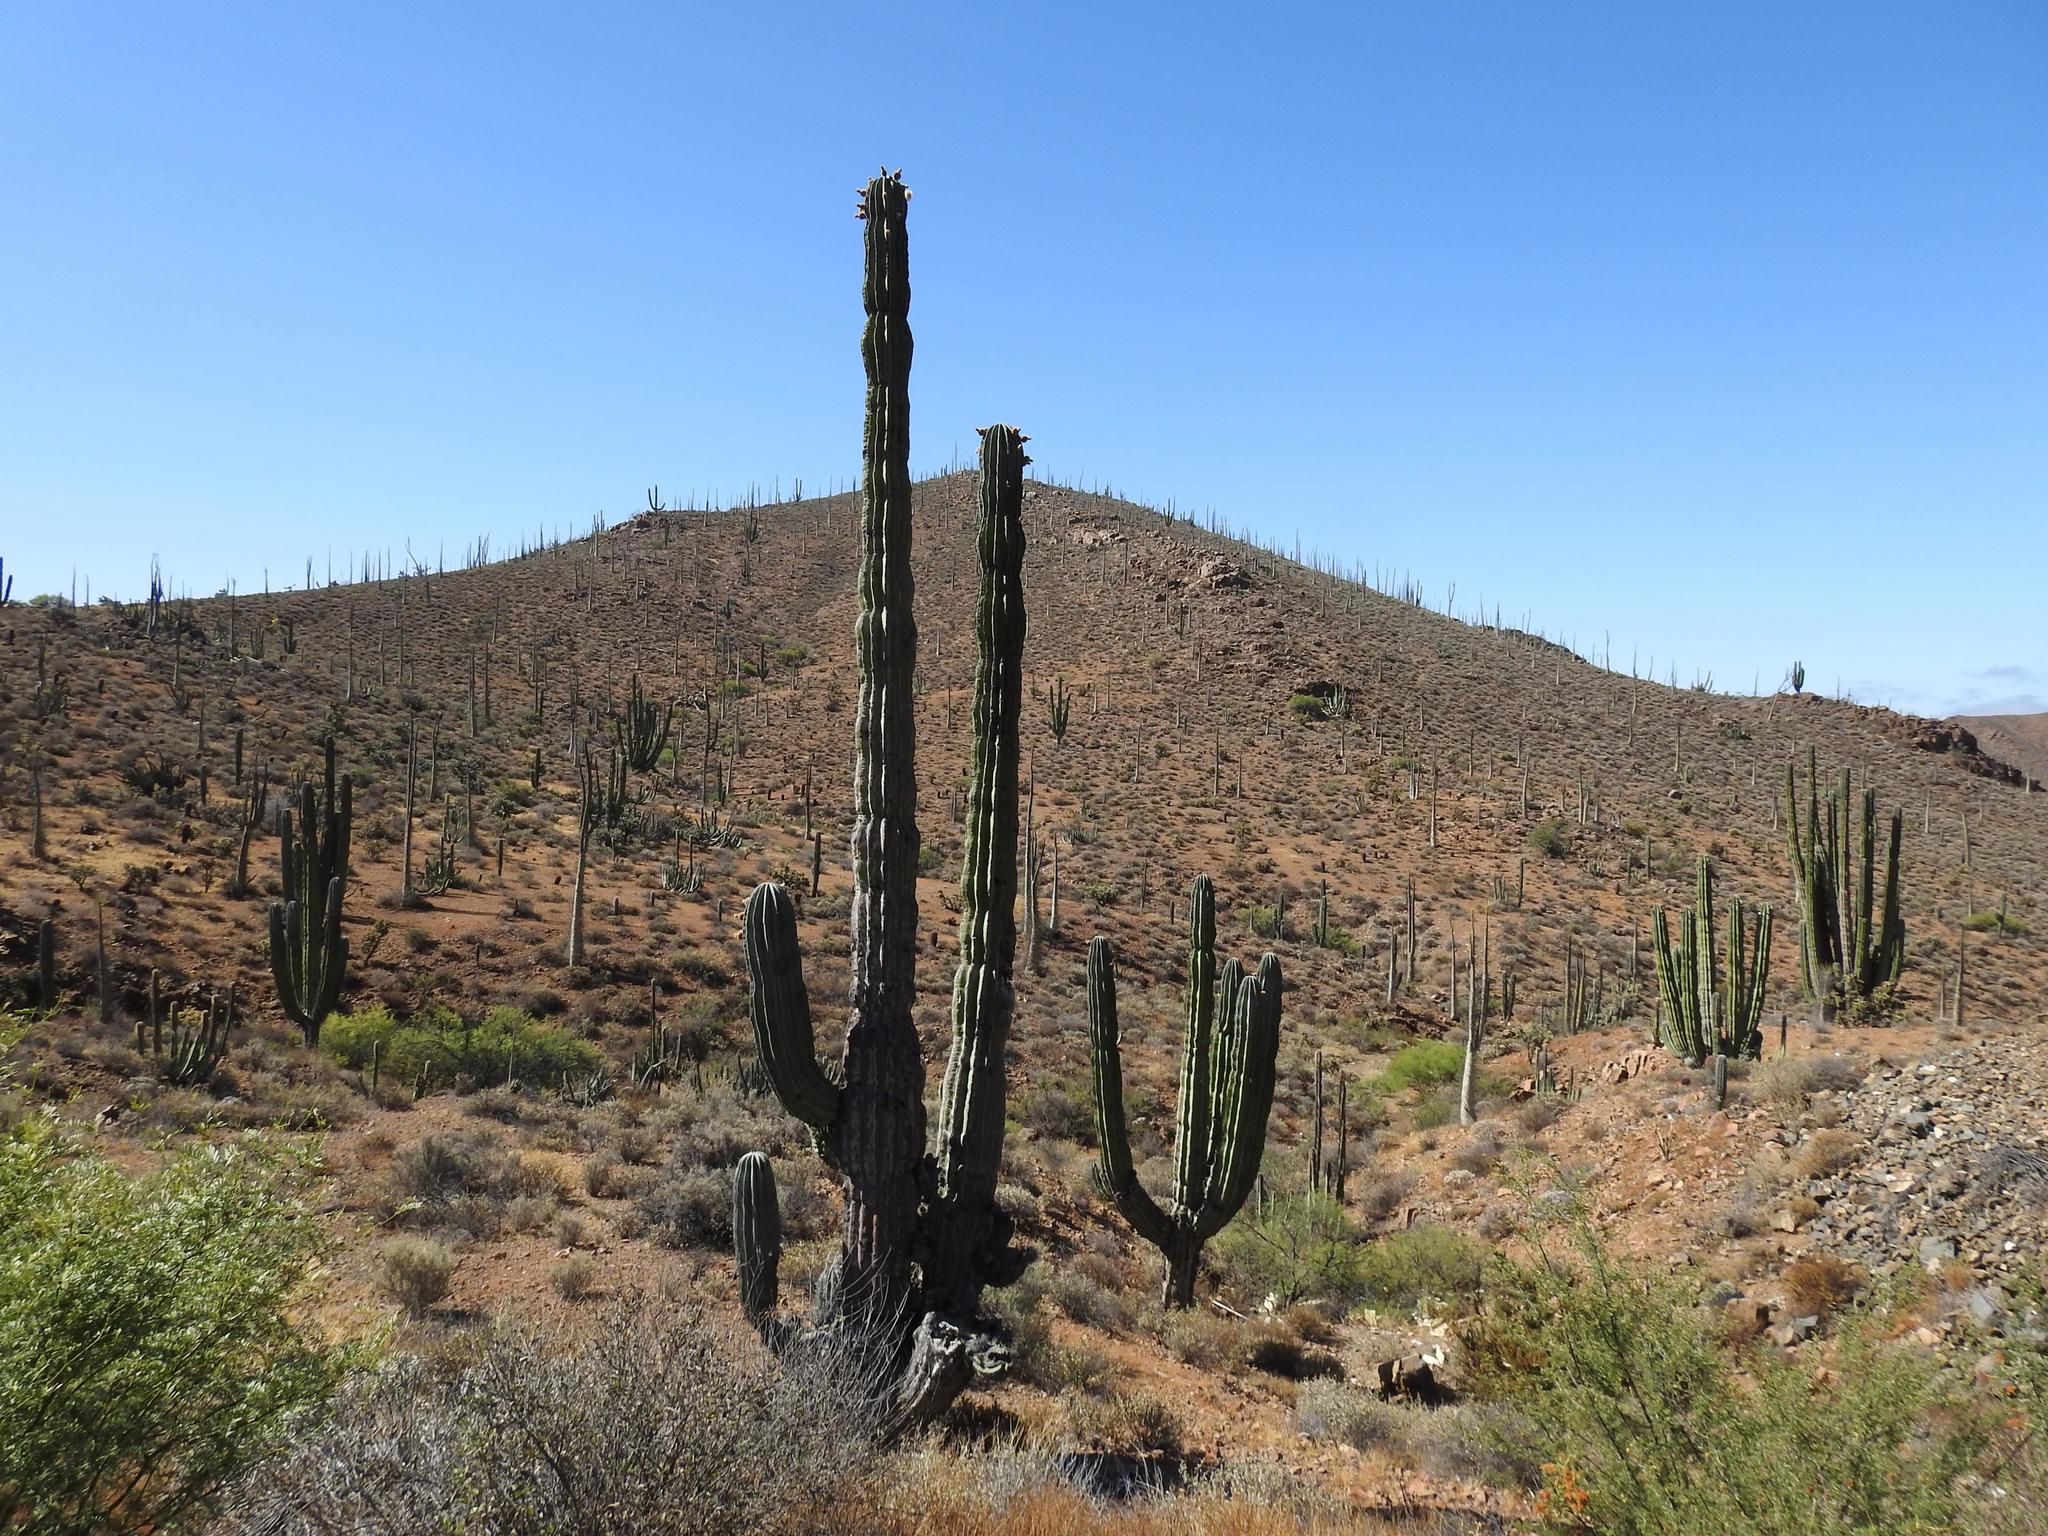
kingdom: Plantae
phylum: Tracheophyta
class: Magnoliopsida
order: Caryophyllales
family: Cactaceae
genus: Pachycereus
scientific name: Pachycereus pringlei
